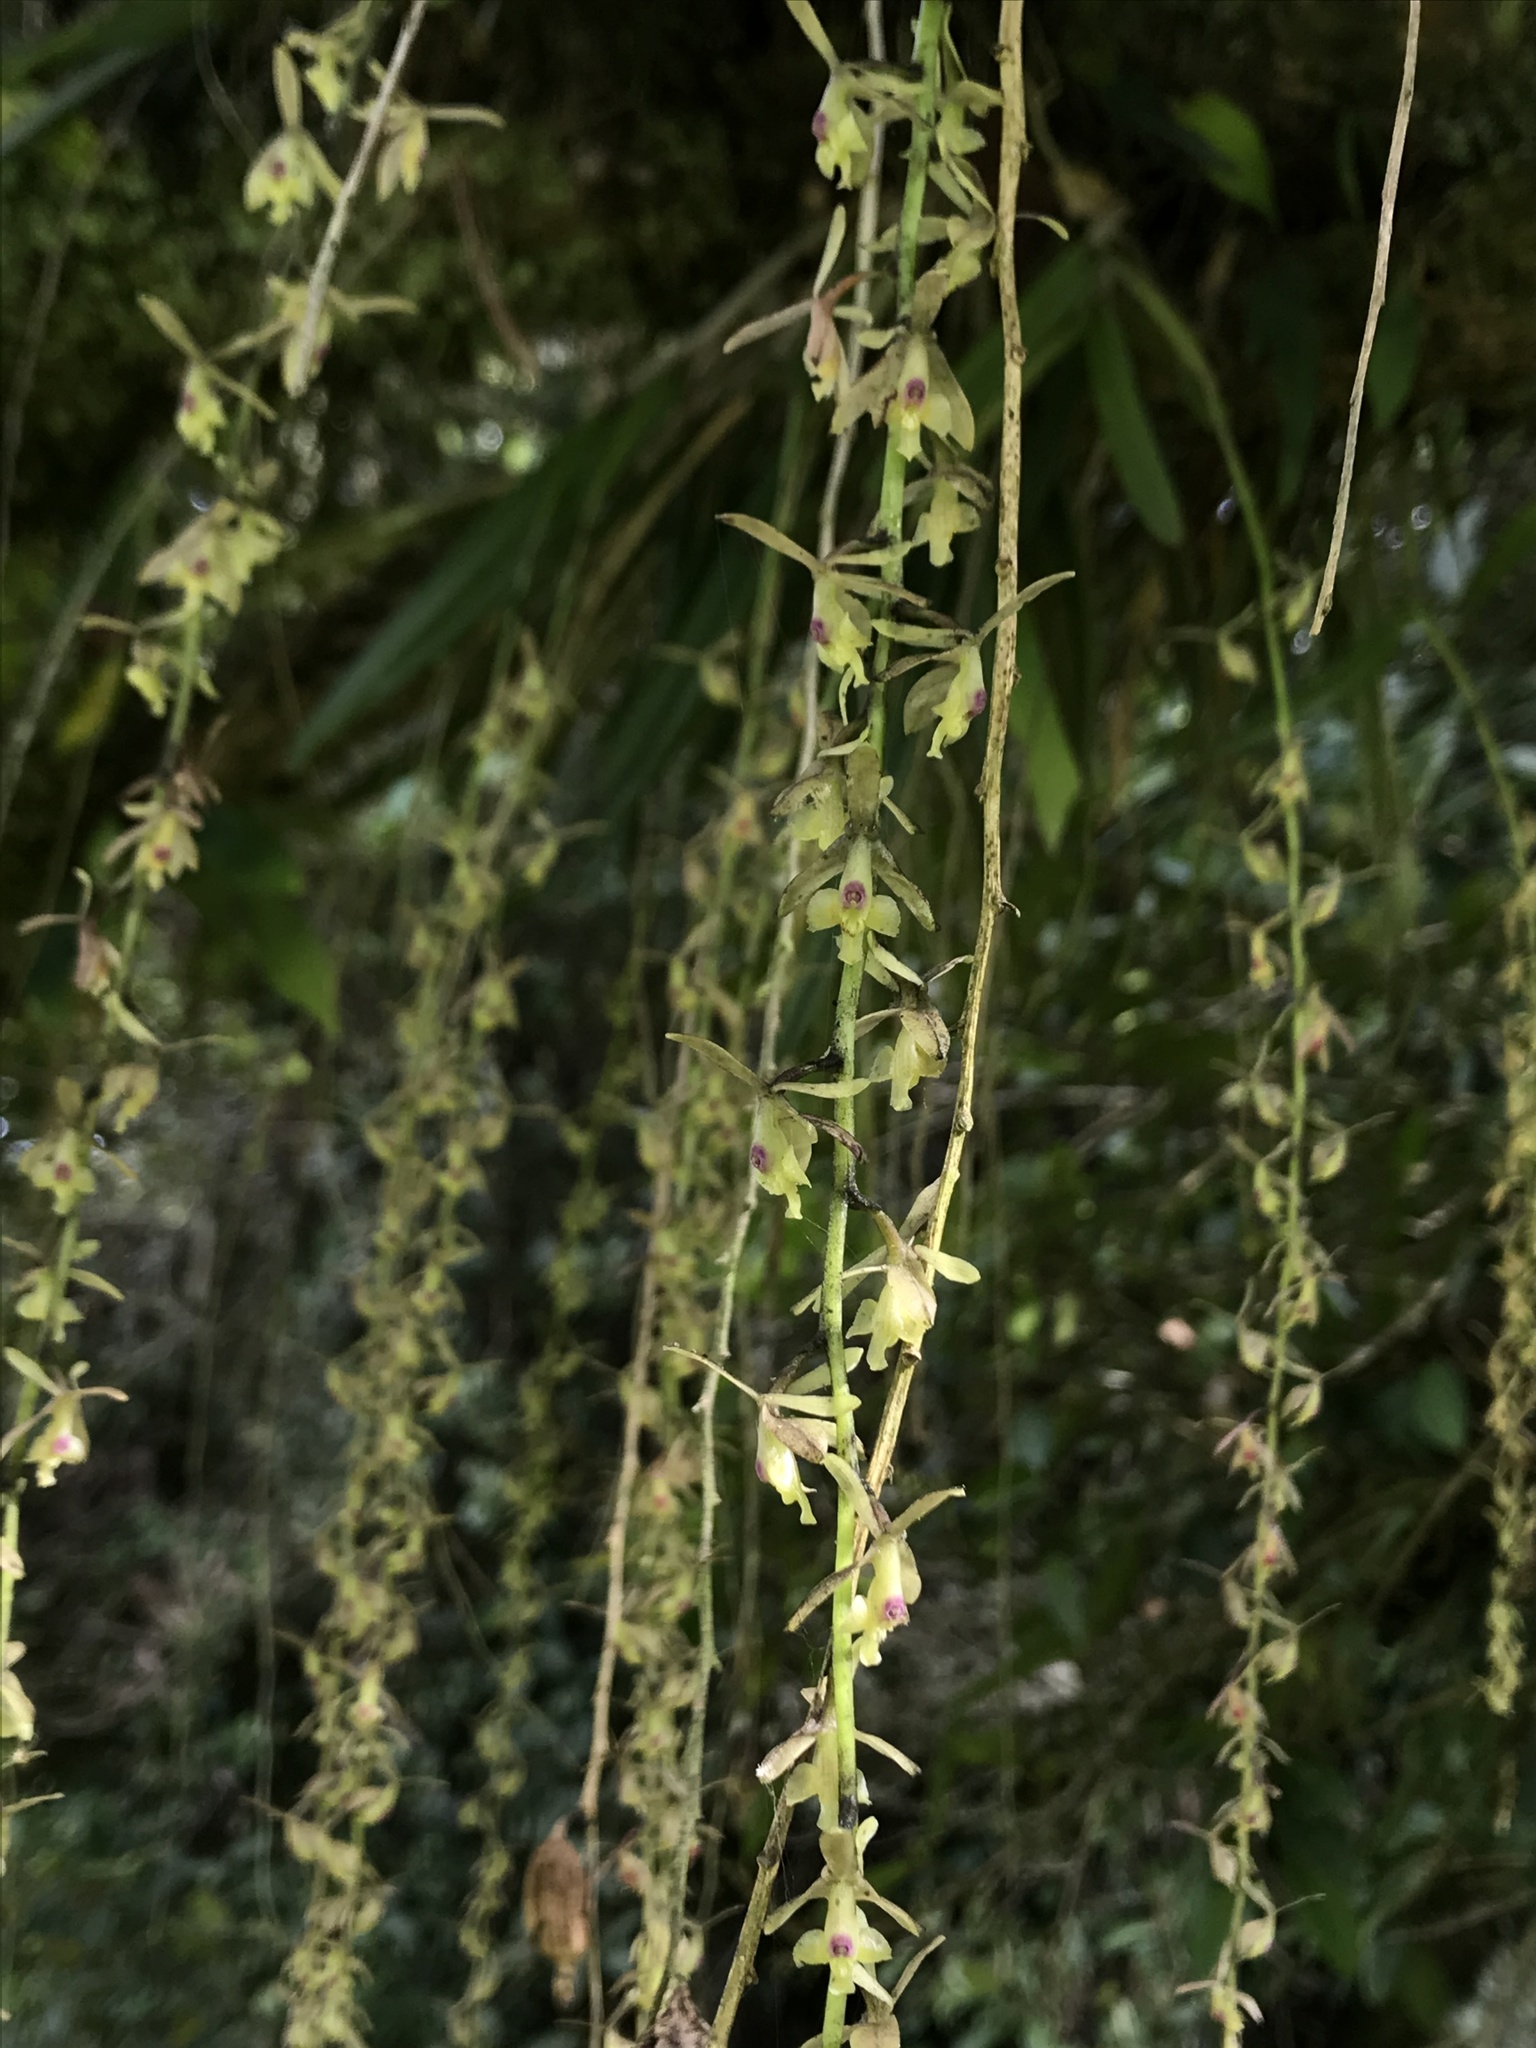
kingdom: Plantae
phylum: Tracheophyta
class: Liliopsida
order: Asparagales
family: Orchidaceae
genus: Epidendrum
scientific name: Epidendrum moritzii
